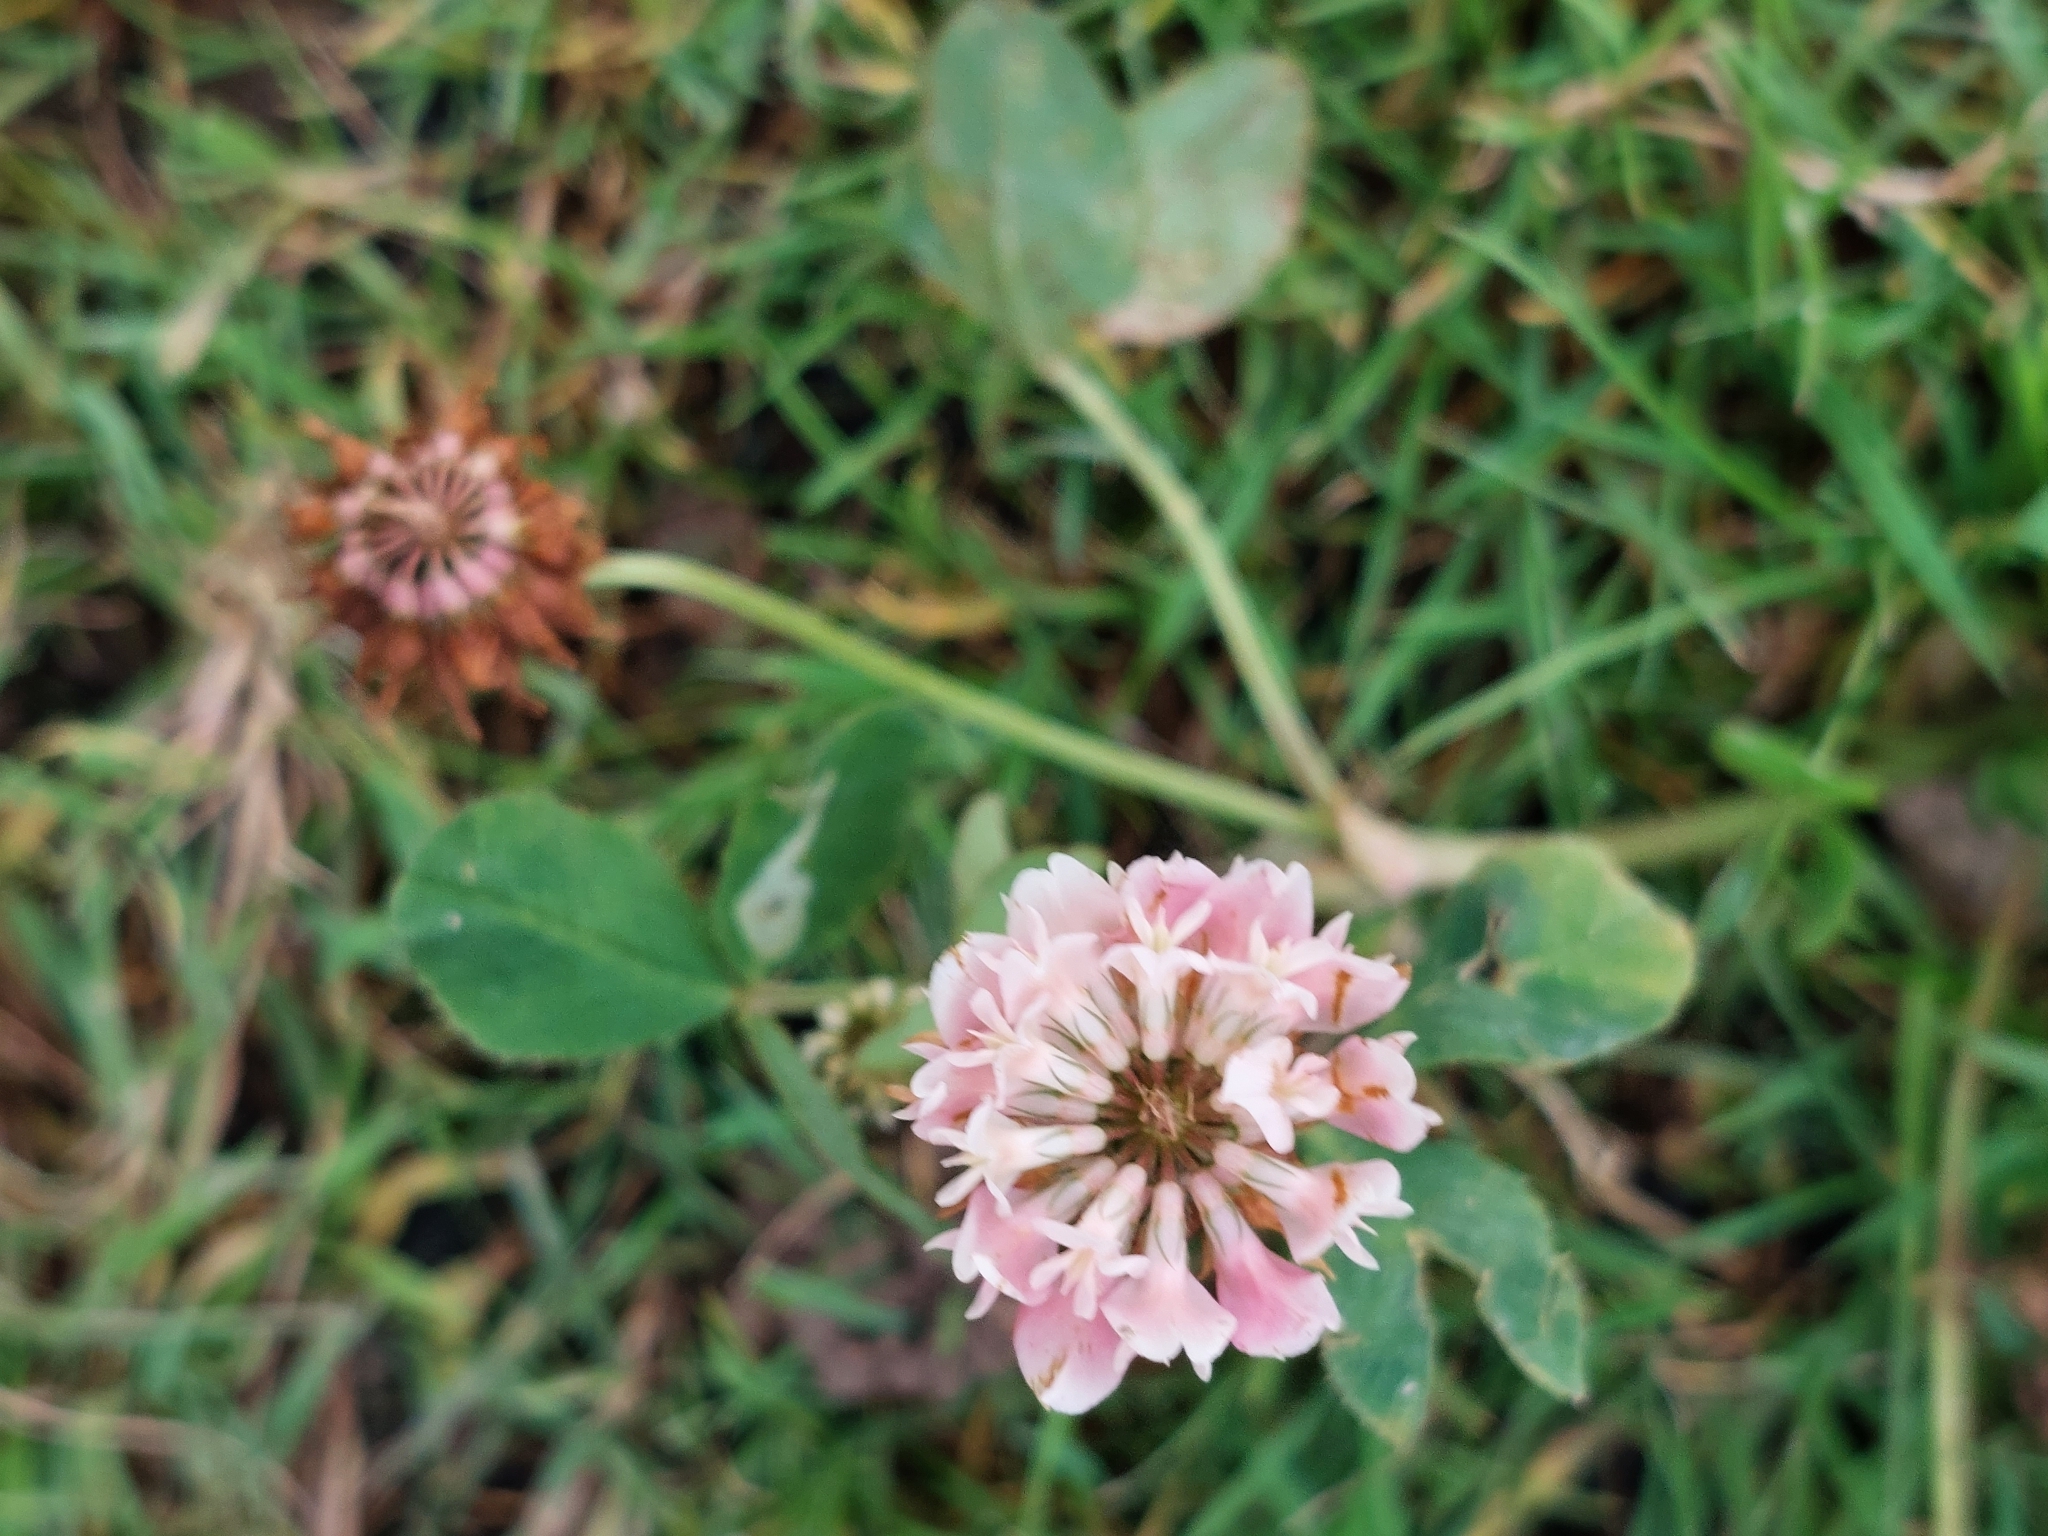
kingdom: Plantae
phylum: Tracheophyta
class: Magnoliopsida
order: Fabales
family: Fabaceae
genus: Trifolium
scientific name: Trifolium hybridum
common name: Alsike clover
